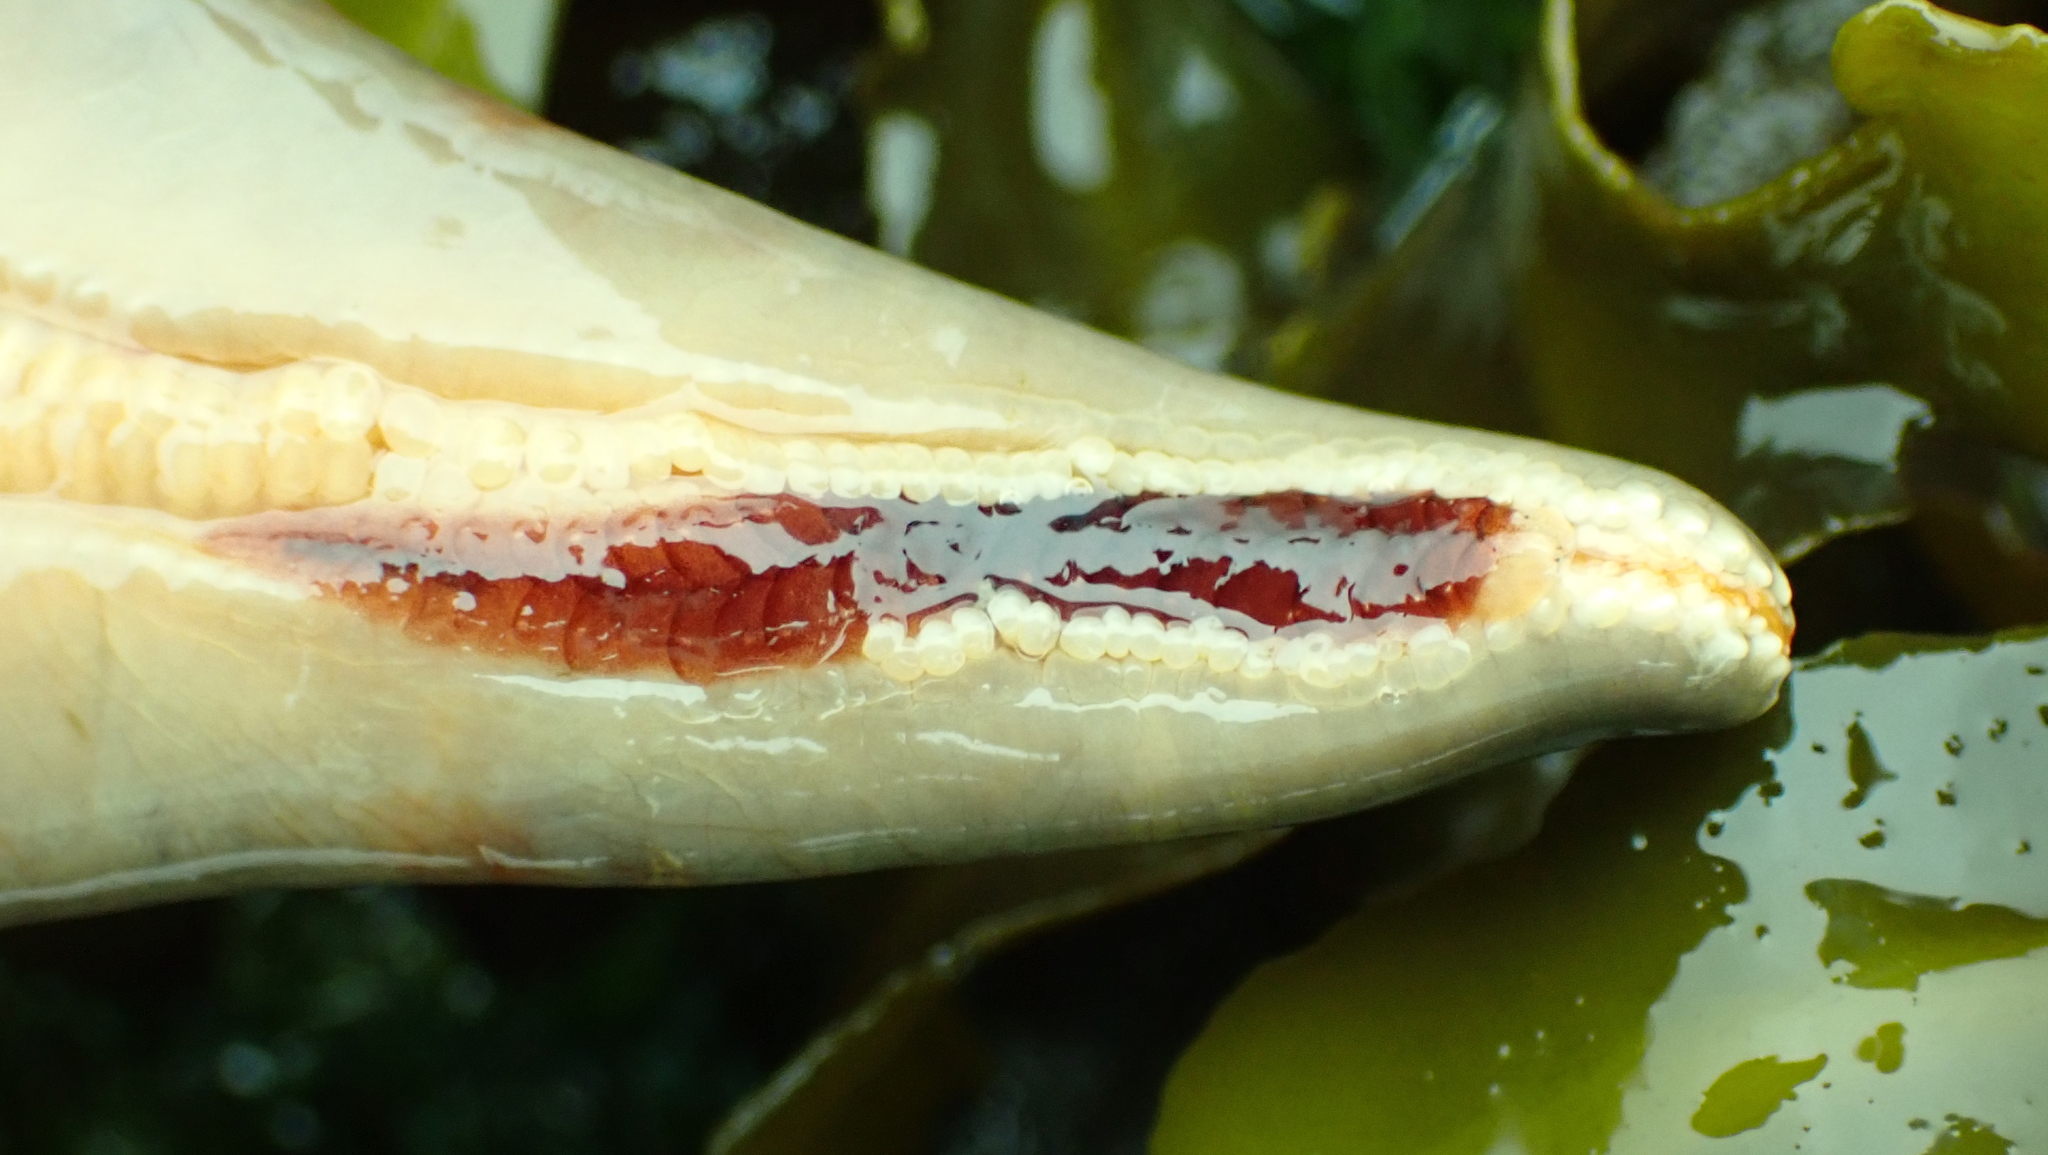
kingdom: Animalia
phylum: Annelida
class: Polychaeta
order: Phyllodocida
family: Polynoidae
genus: Arctonoe
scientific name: Arctonoe pulchra
